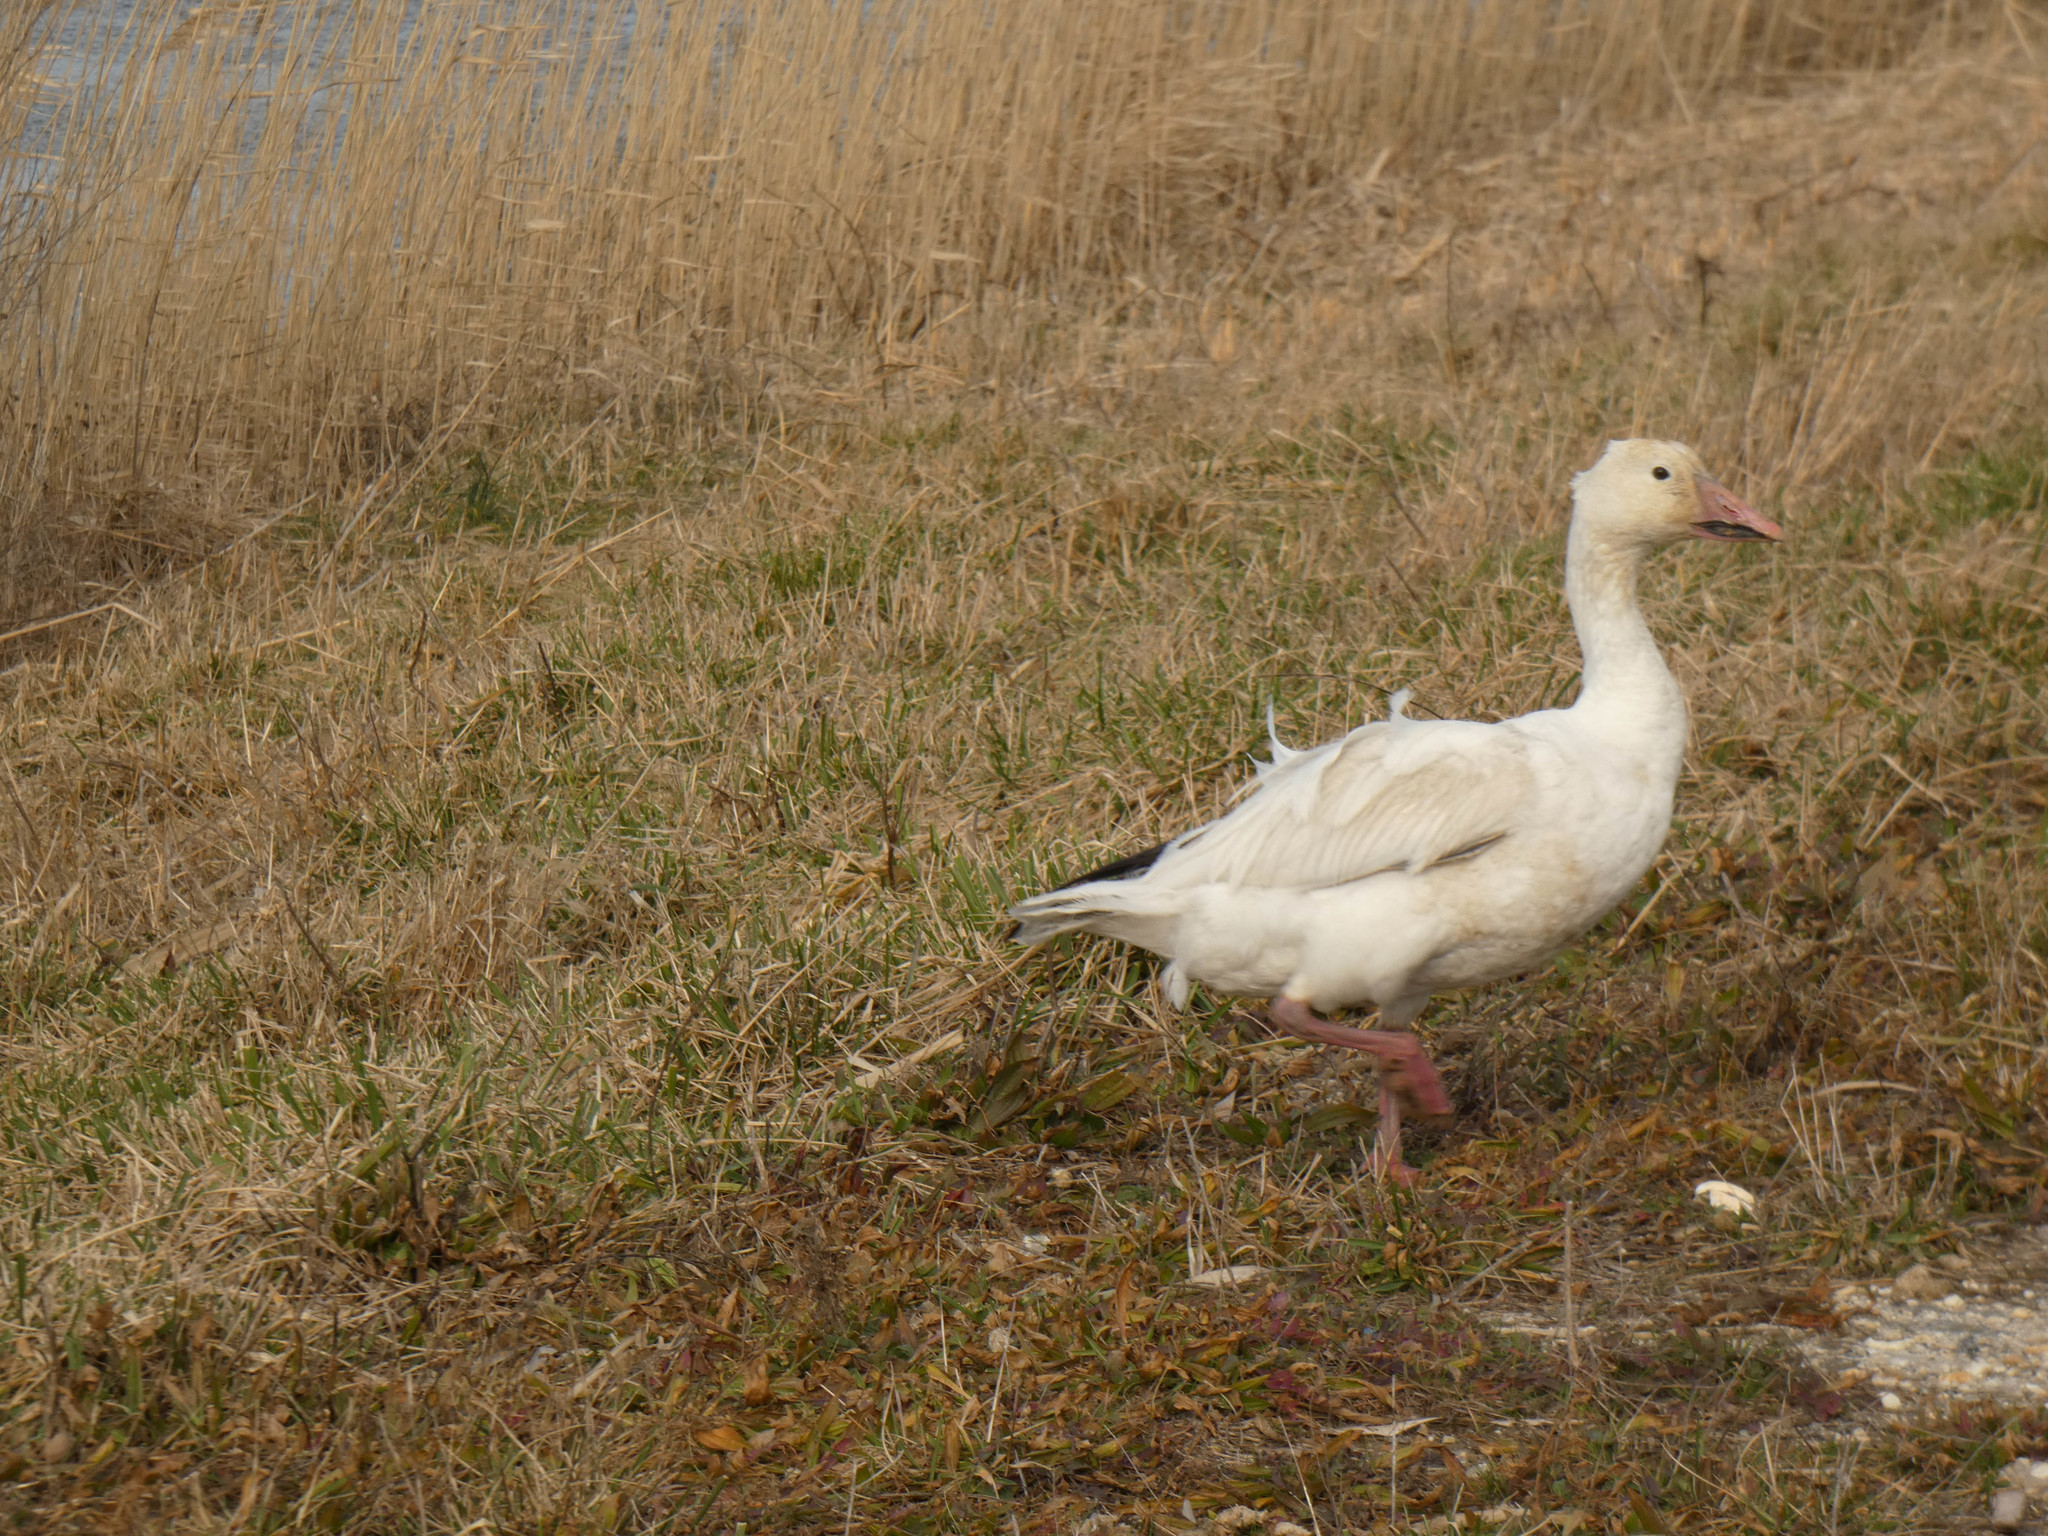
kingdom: Animalia
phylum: Chordata
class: Aves
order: Anseriformes
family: Anatidae
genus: Anser
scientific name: Anser caerulescens
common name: Snow goose
